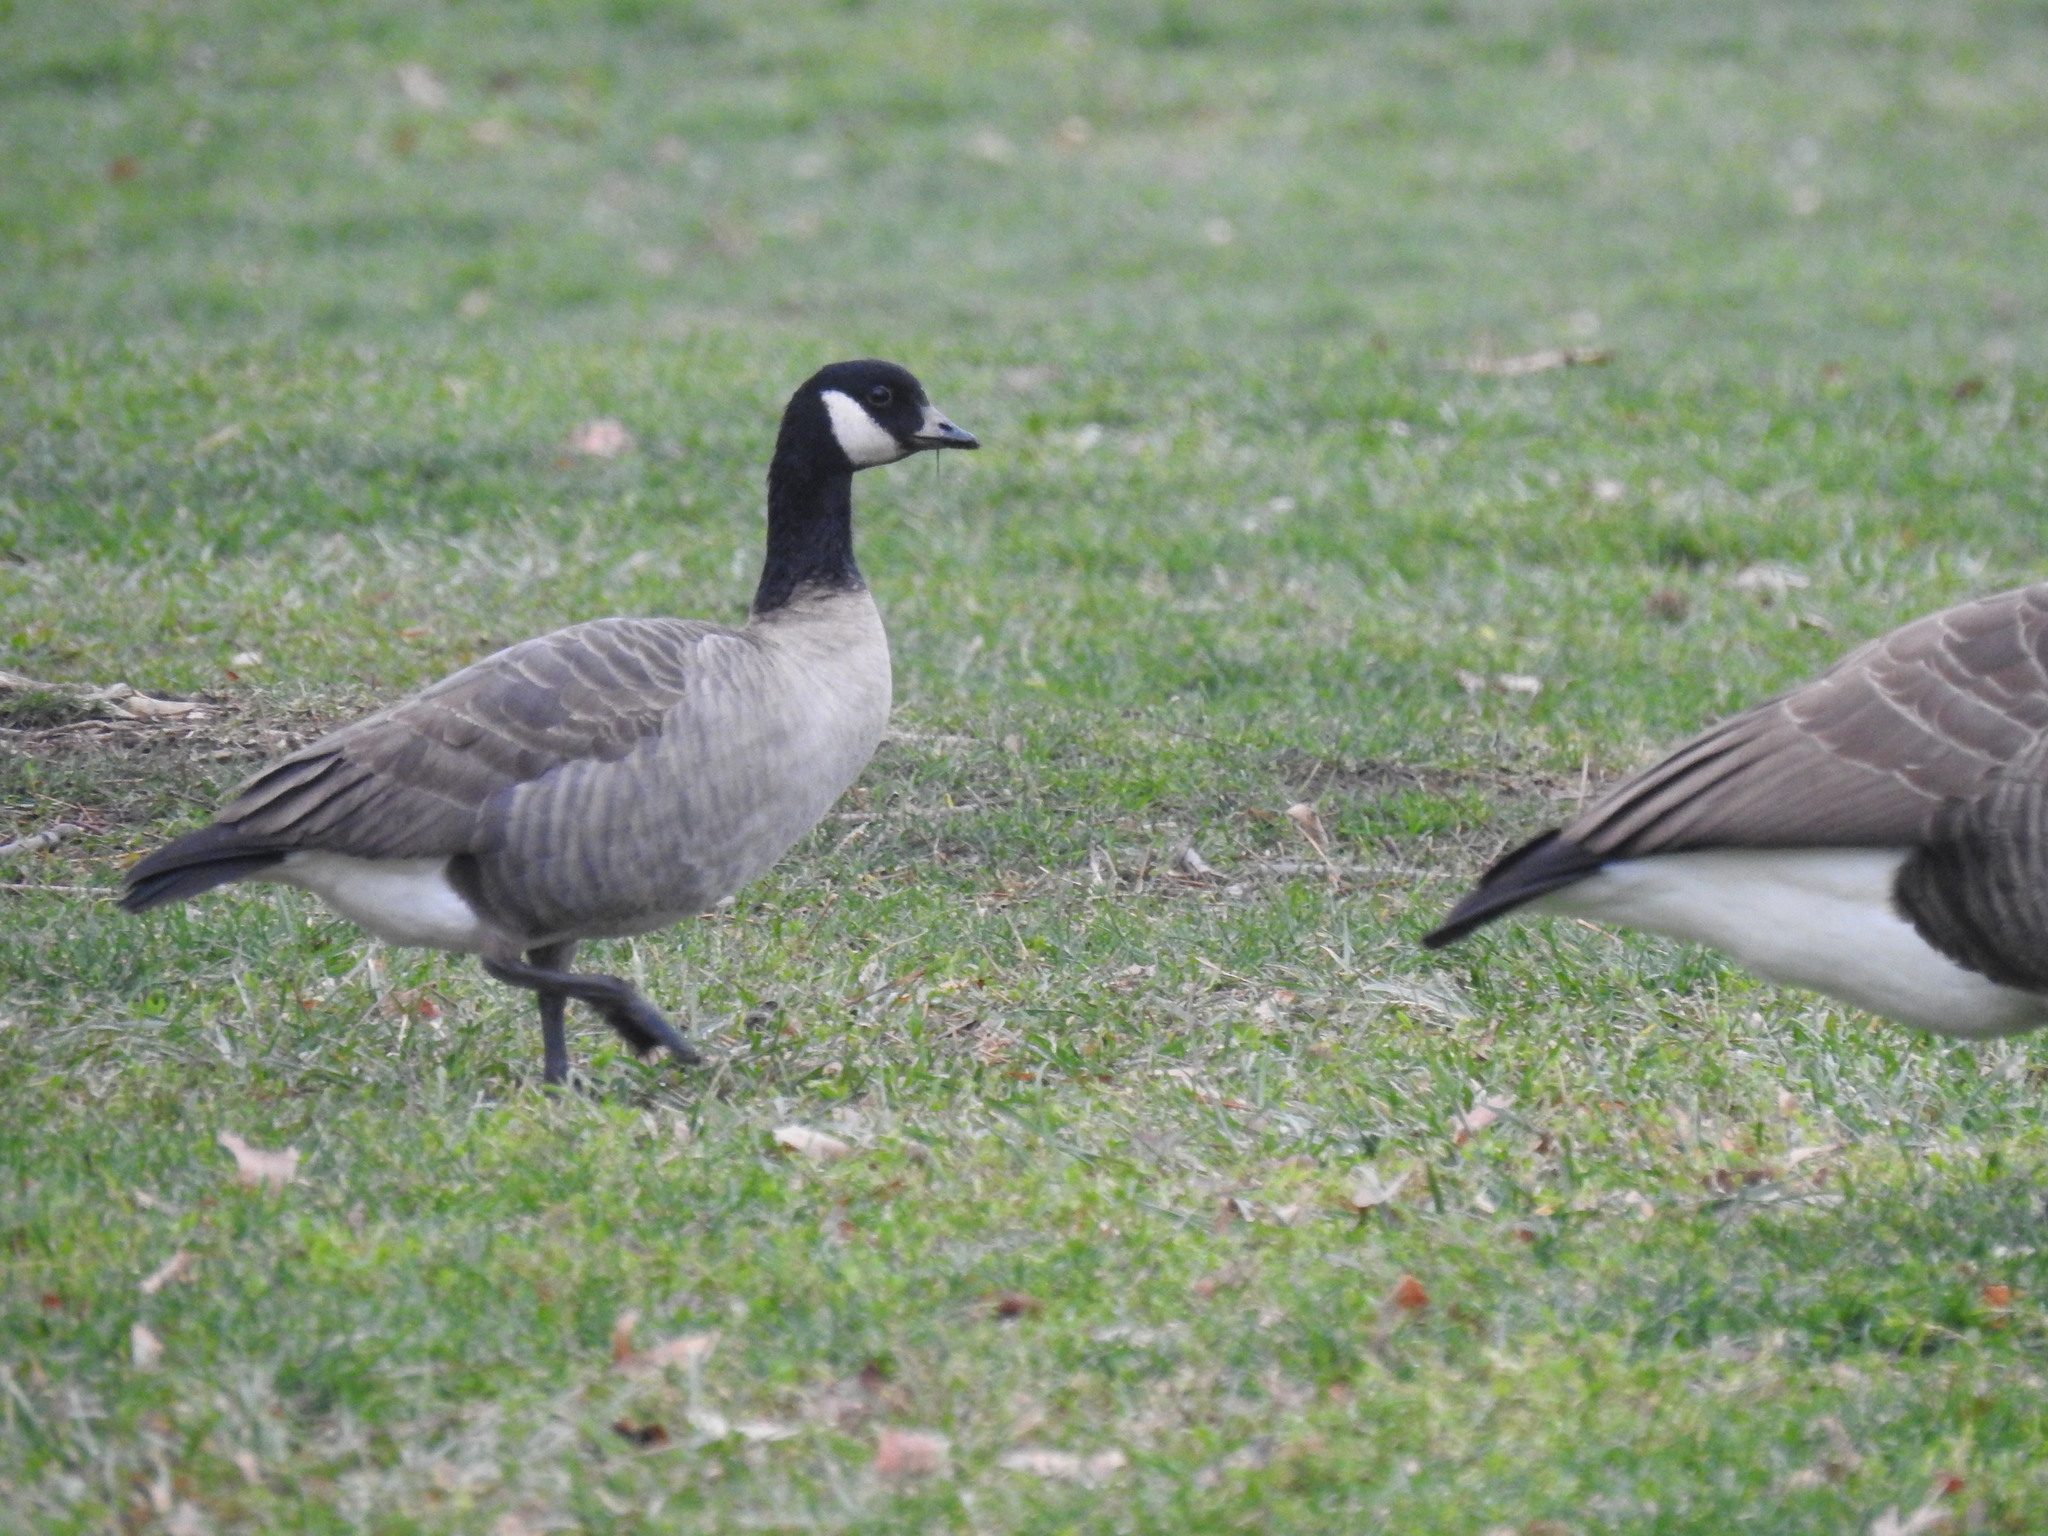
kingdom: Animalia
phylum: Chordata
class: Aves
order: Anseriformes
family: Anatidae
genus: Branta
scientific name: Branta hutchinsii
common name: Cackling goose
